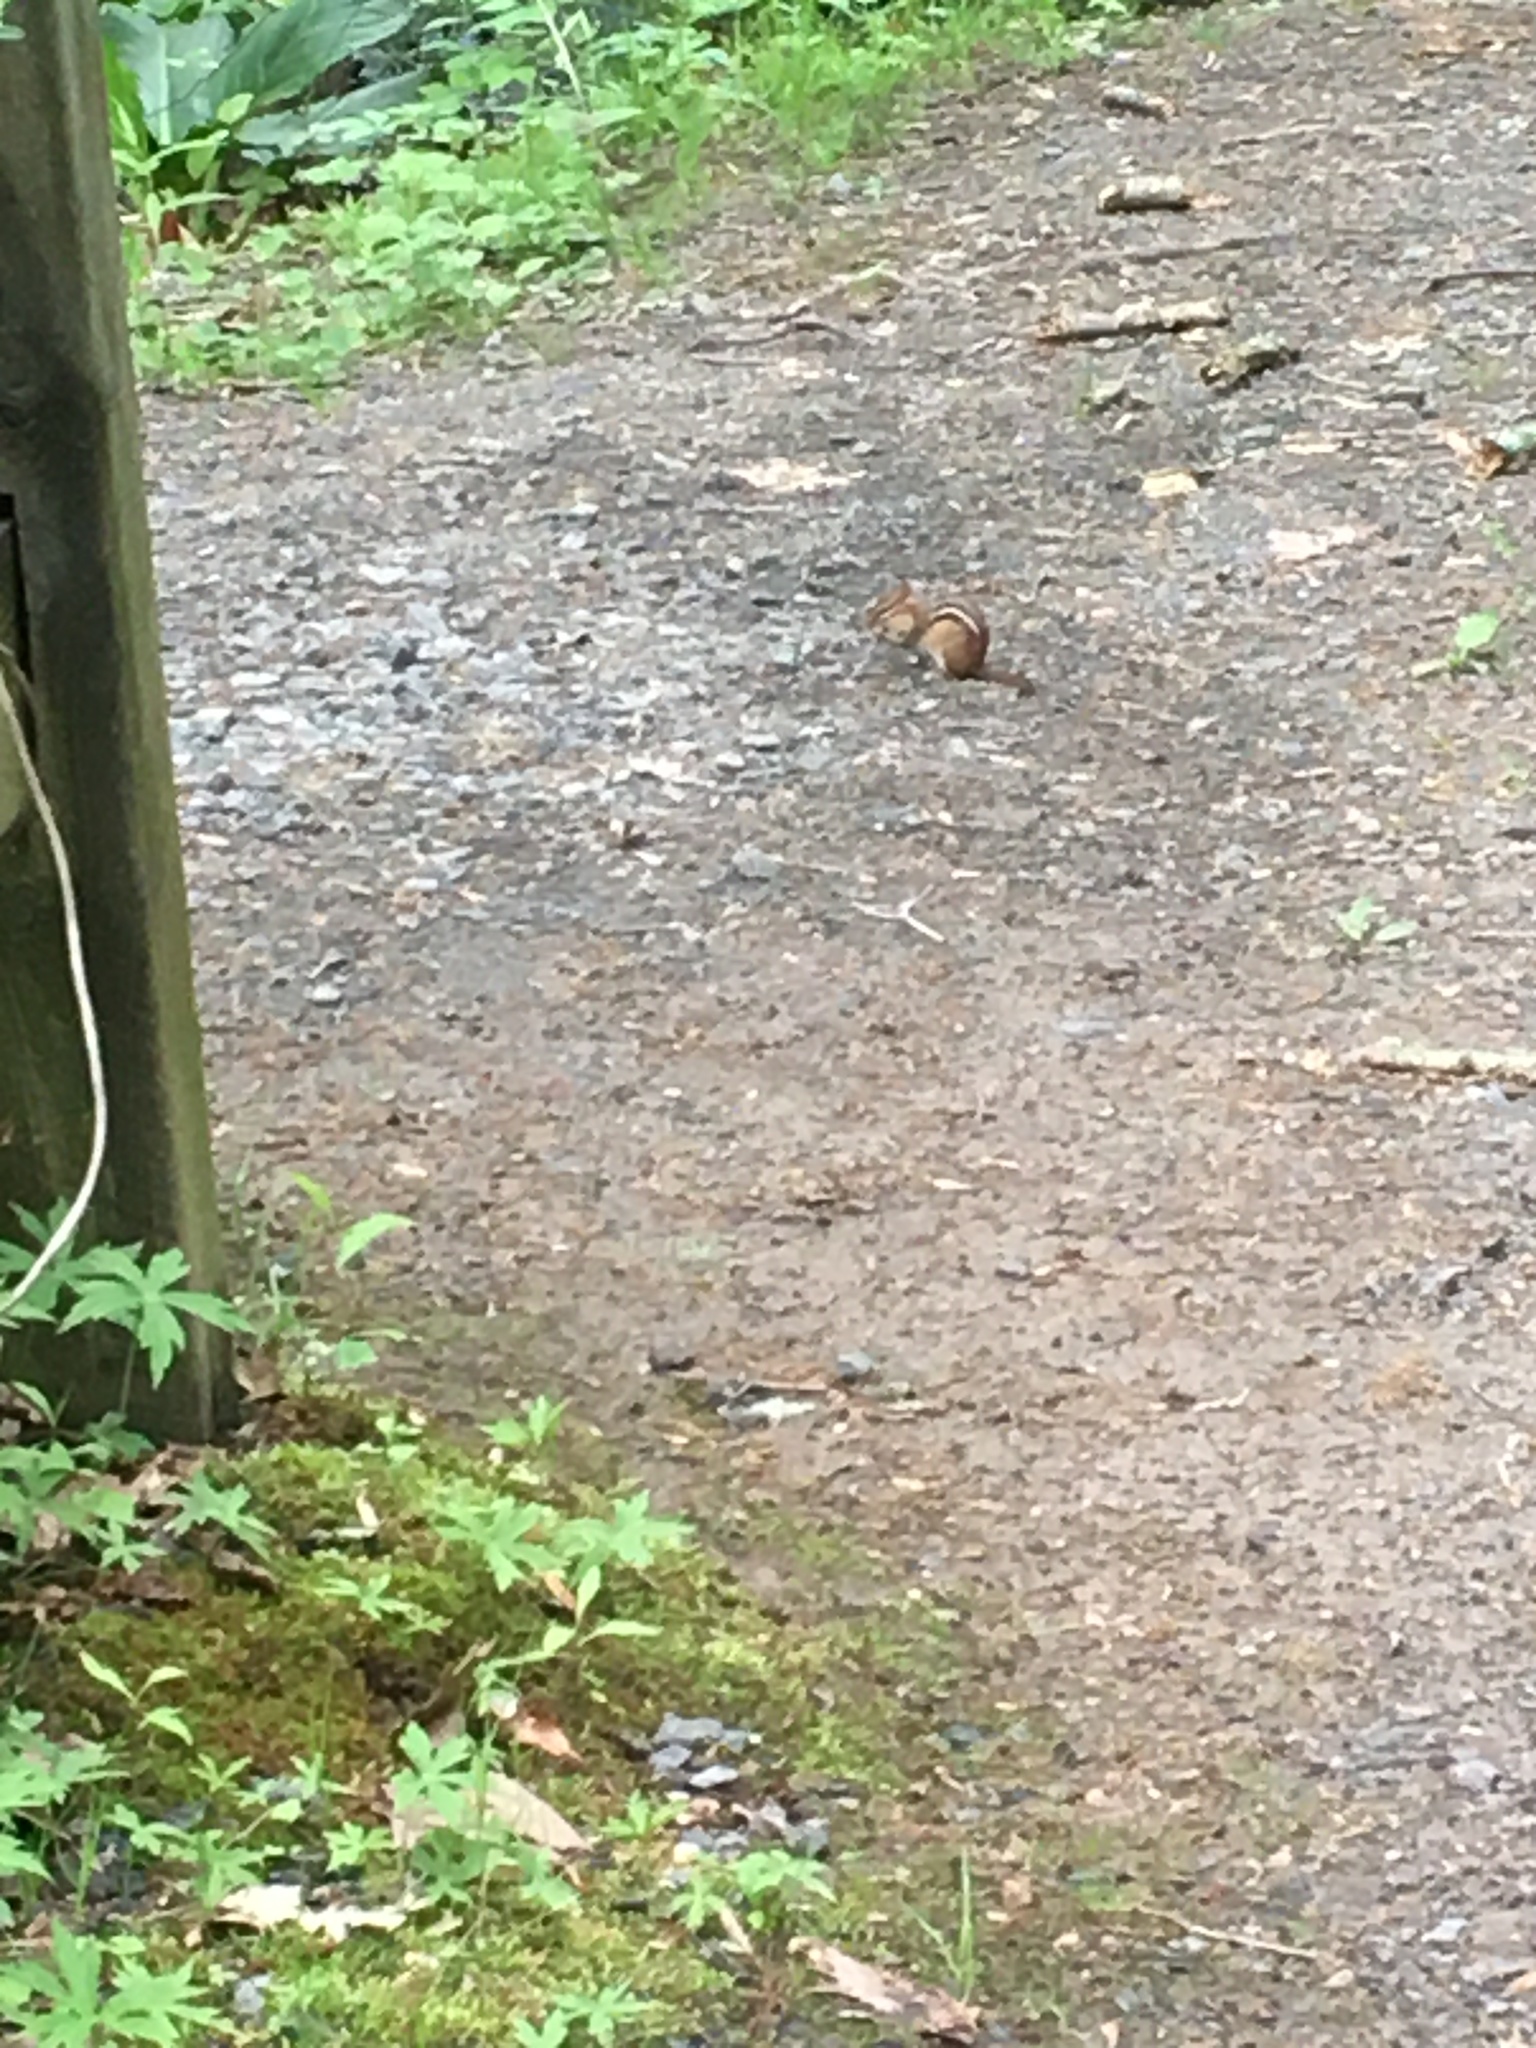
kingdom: Animalia
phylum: Chordata
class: Mammalia
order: Rodentia
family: Sciuridae
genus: Tamias
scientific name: Tamias striatus
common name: Eastern chipmunk
